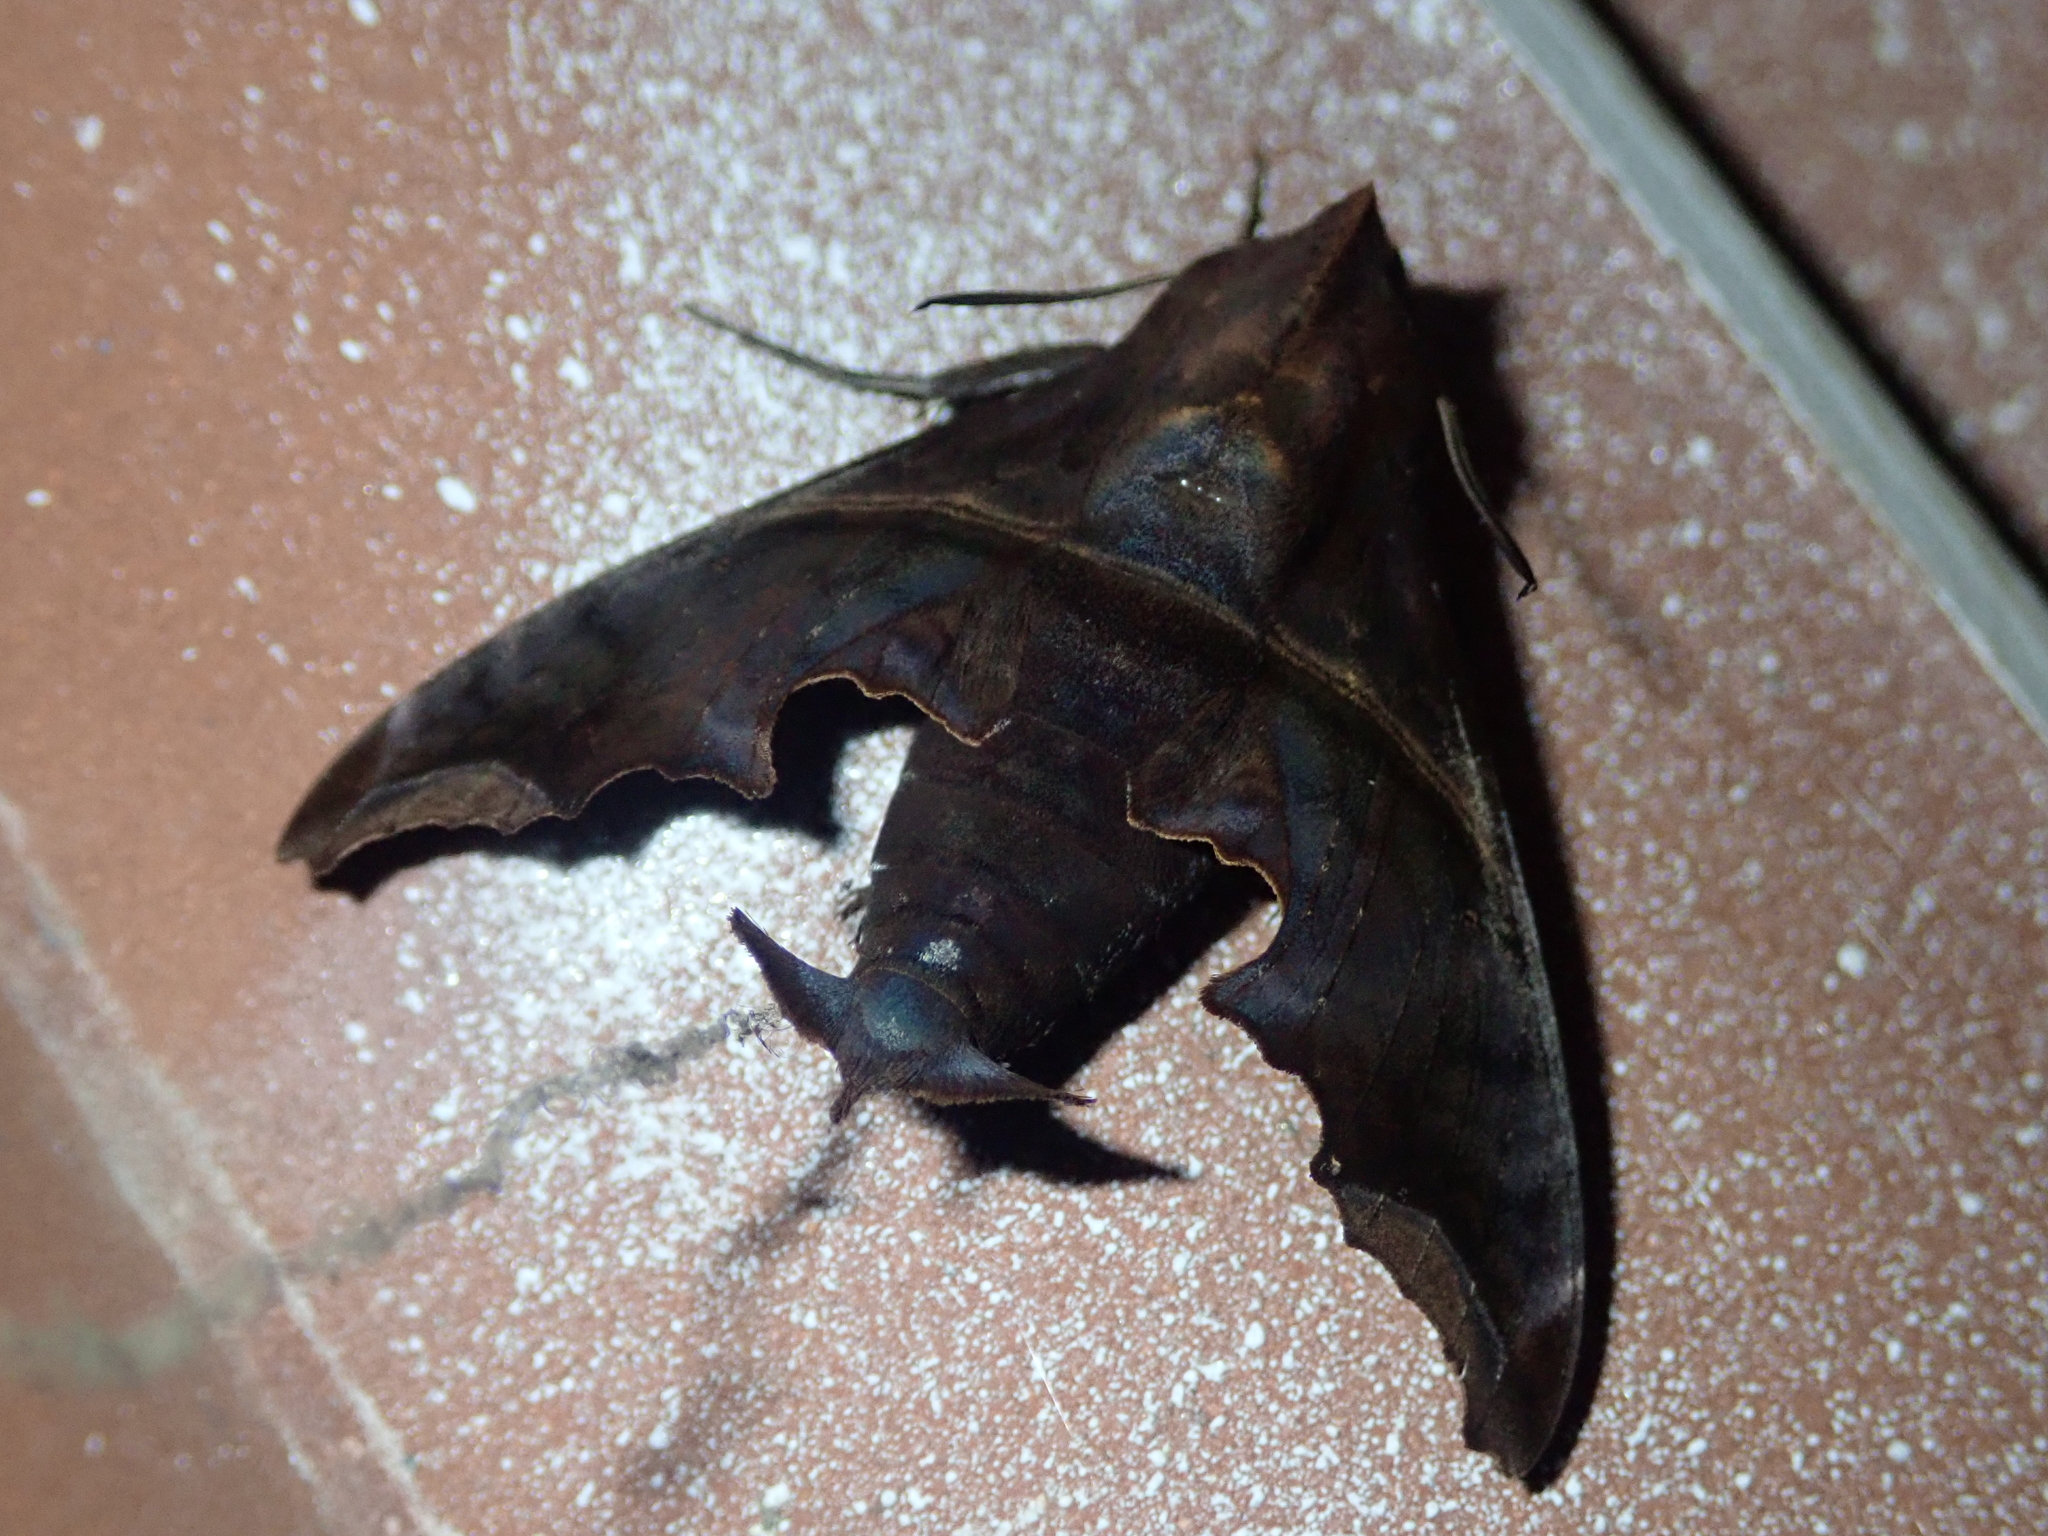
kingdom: Animalia
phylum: Arthropoda
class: Insecta
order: Lepidoptera
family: Sphingidae
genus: Enyo
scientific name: Enyo ocypete
